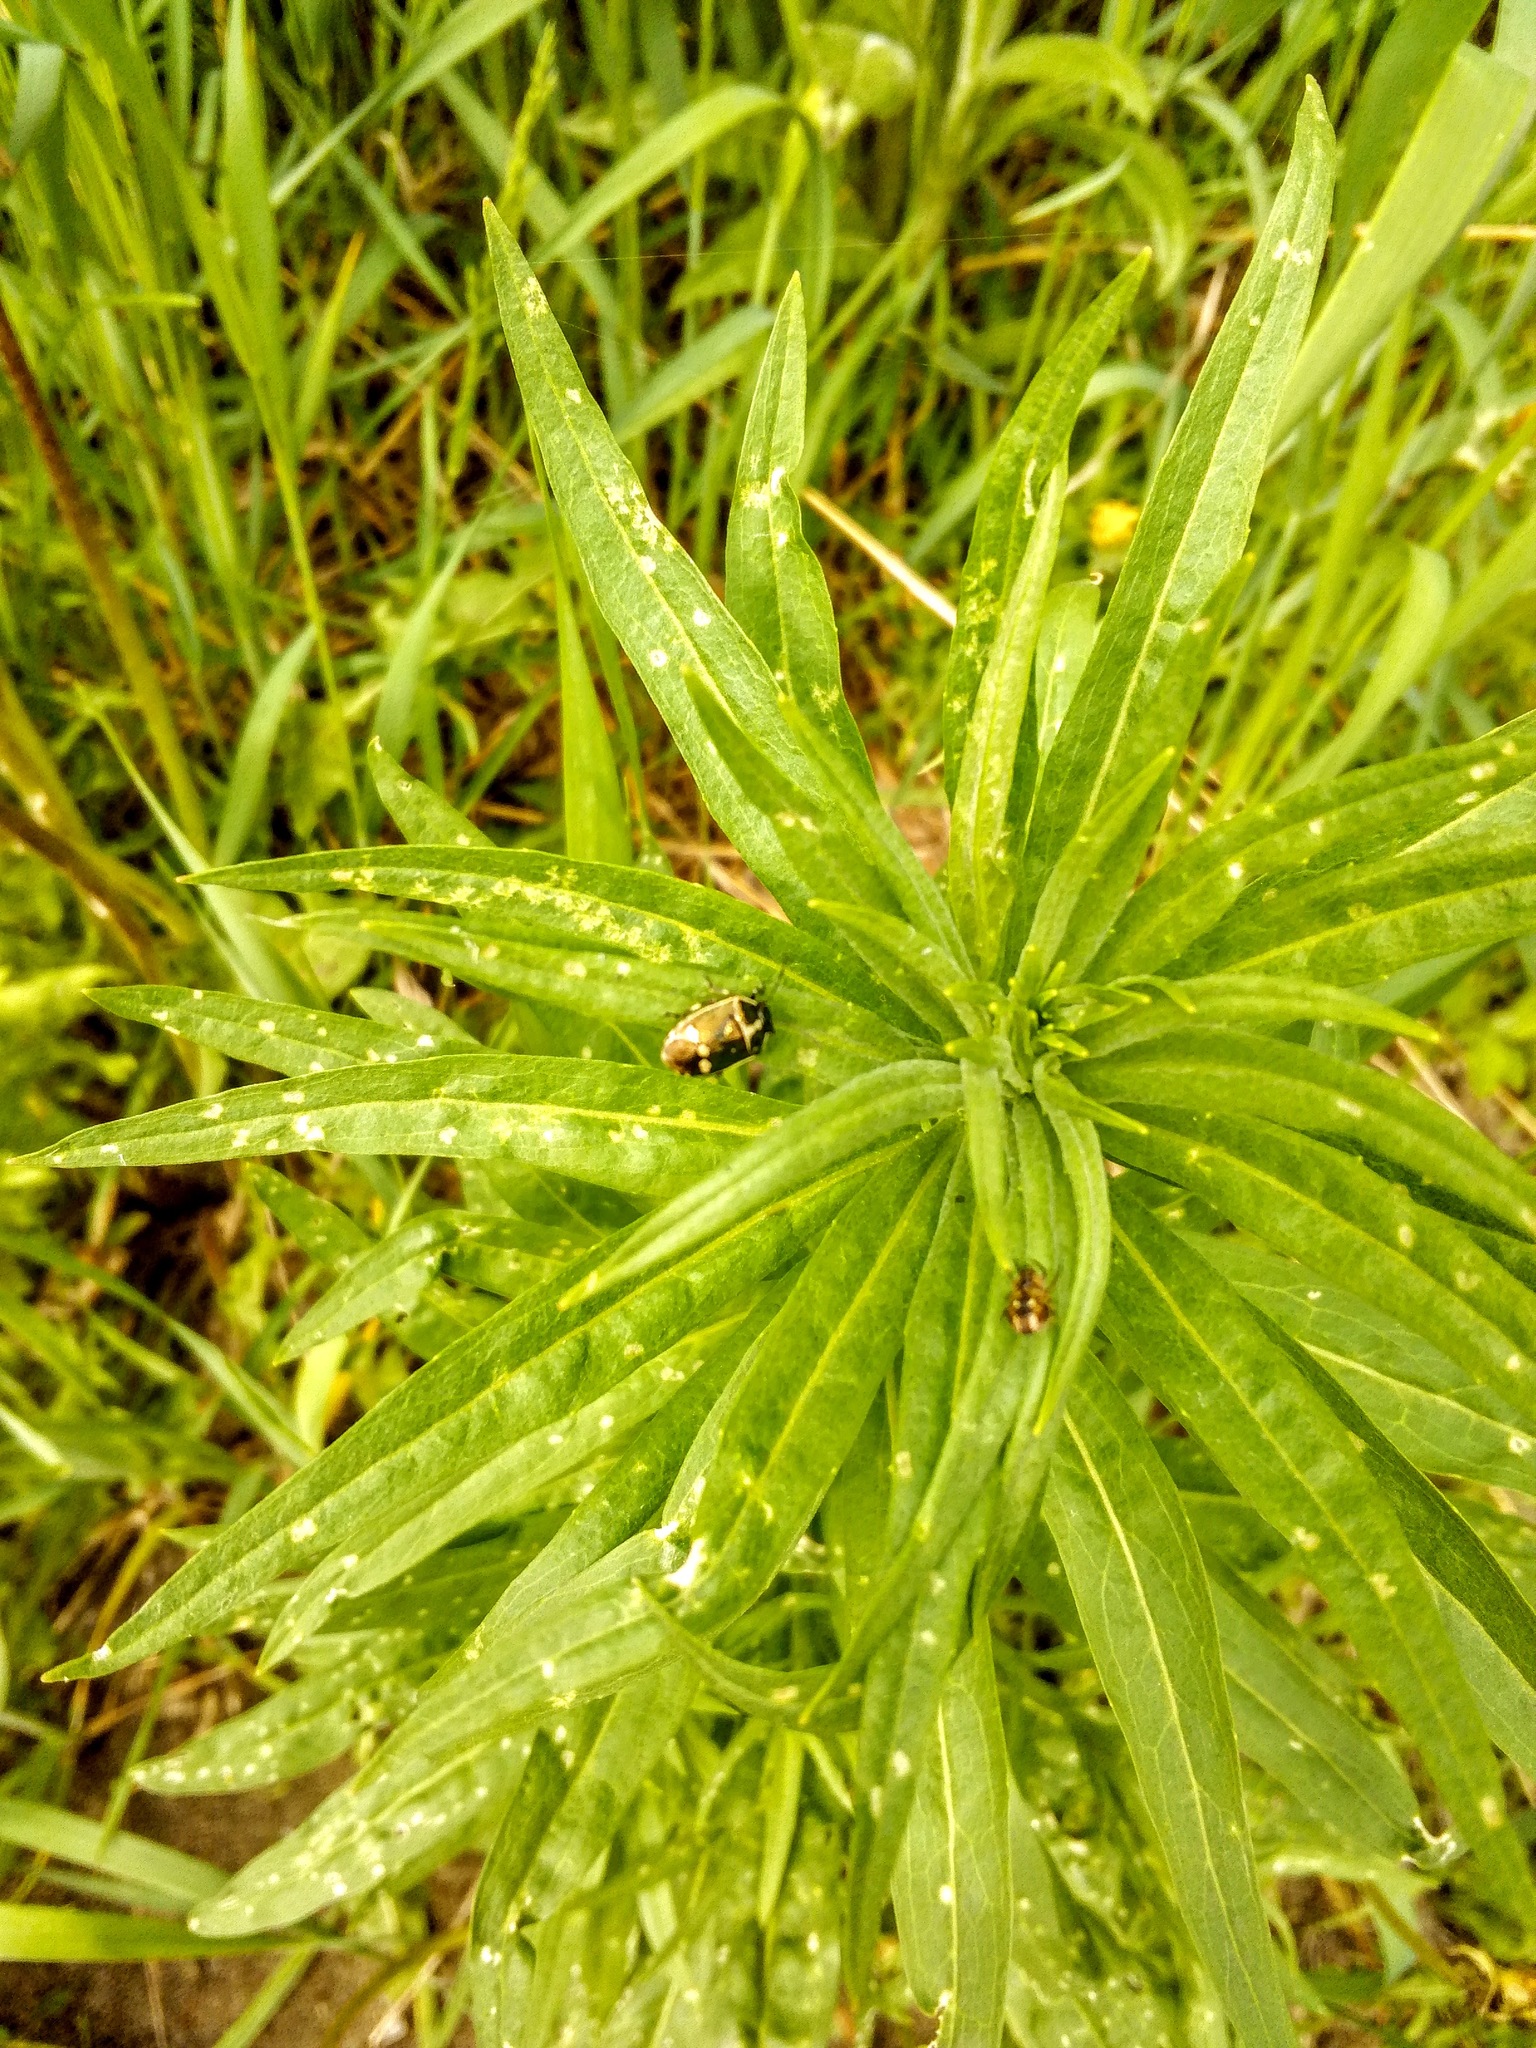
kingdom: Animalia
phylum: Arthropoda
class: Insecta
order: Hemiptera
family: Pentatomidae
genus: Eurydema
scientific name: Eurydema oleracea
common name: Cabbage bug
